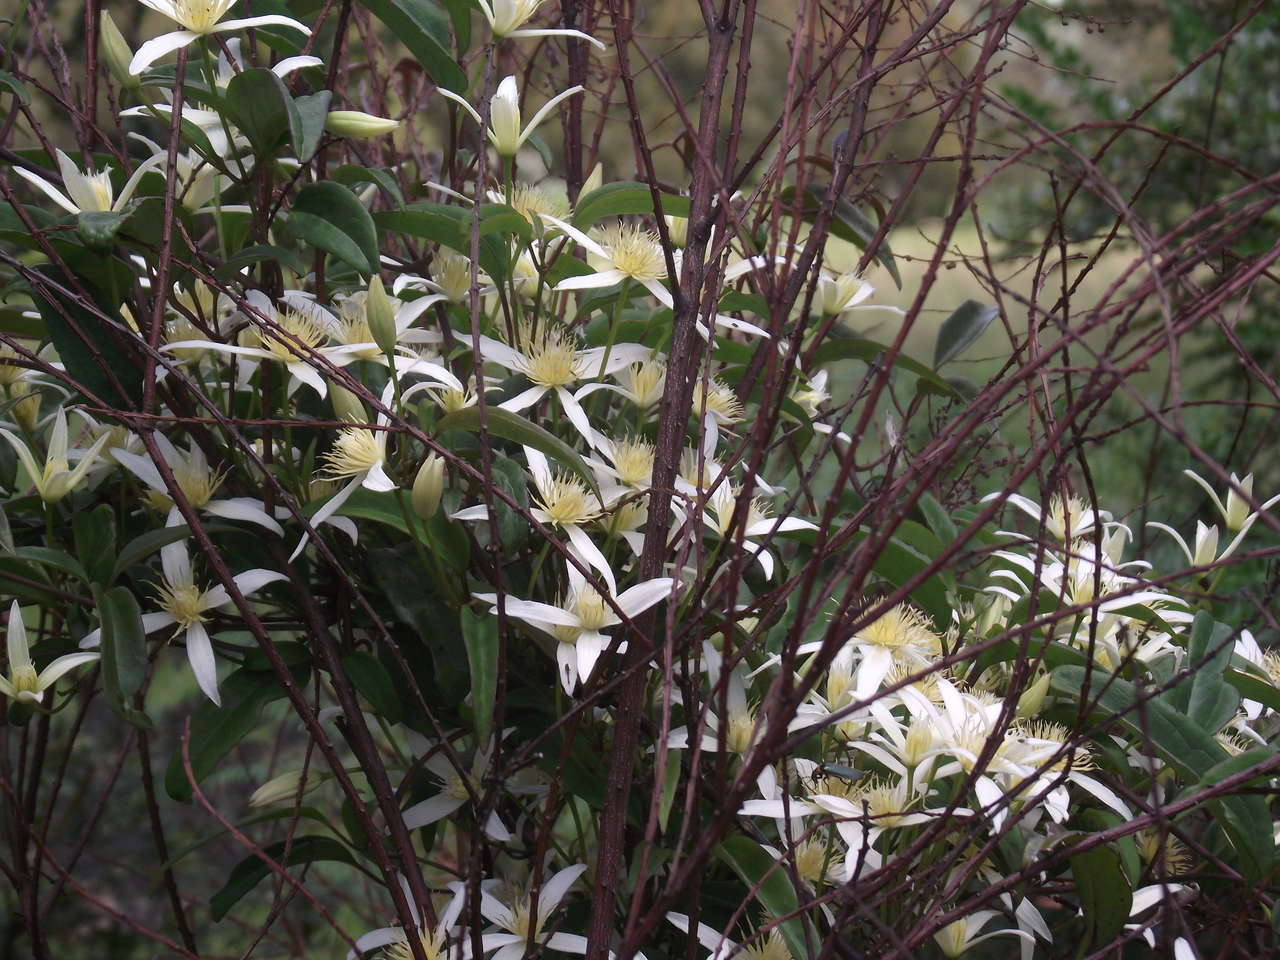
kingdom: Plantae
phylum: Tracheophyta
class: Magnoliopsida
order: Ranunculales
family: Ranunculaceae
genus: Clematis
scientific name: Clematis aristata
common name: Mountain clematis
